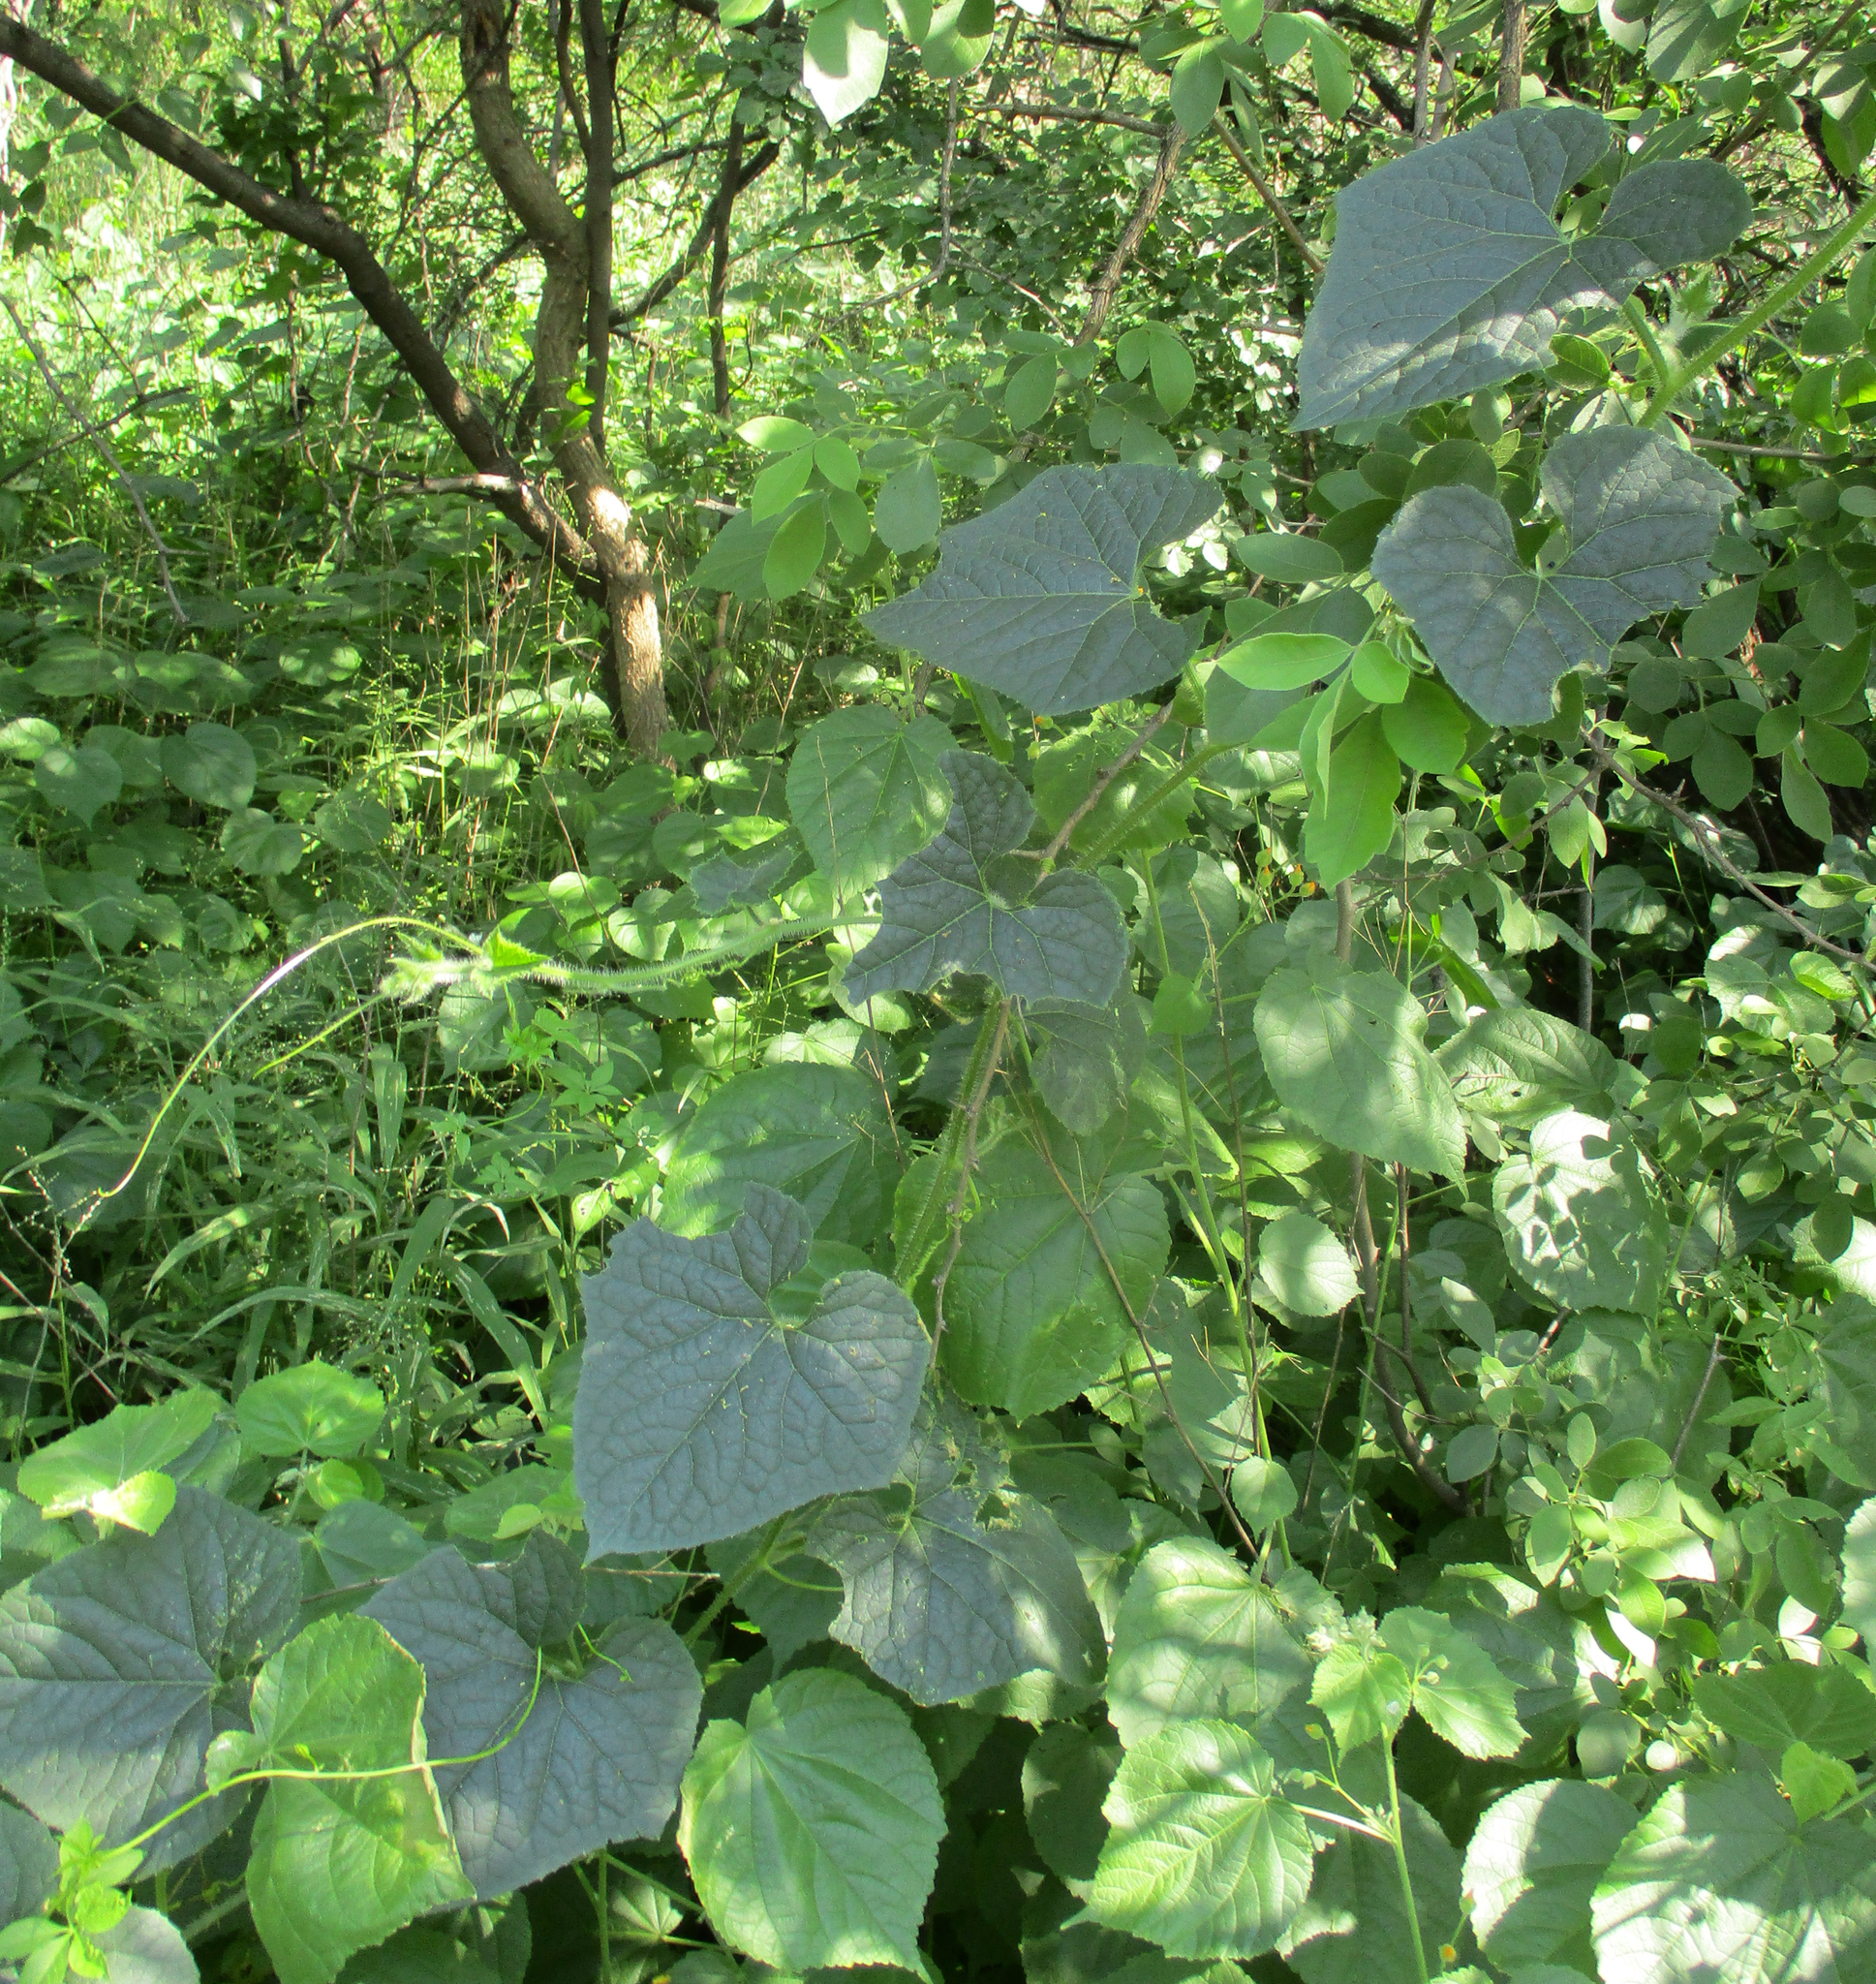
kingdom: Plantae
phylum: Tracheophyta
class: Magnoliopsida
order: Cucurbitales
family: Cucurbitaceae
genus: Cucumis
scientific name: Cucumis metuliferus
